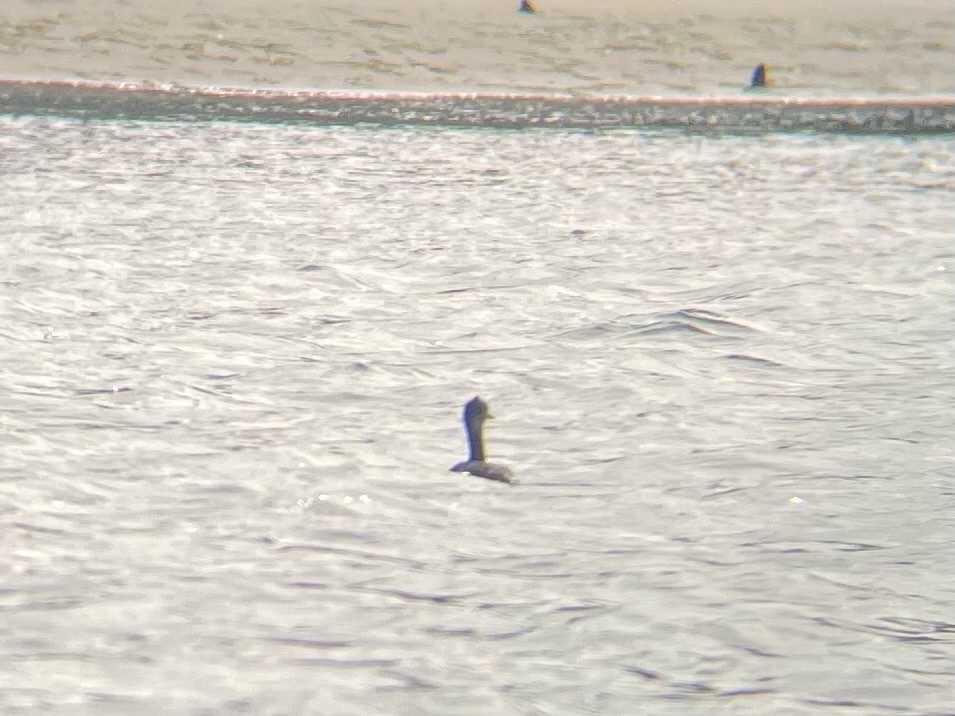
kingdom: Animalia
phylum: Chordata
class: Aves
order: Podicipediformes
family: Podicipedidae
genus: Podiceps
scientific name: Podiceps nigricollis
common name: Black-necked grebe
